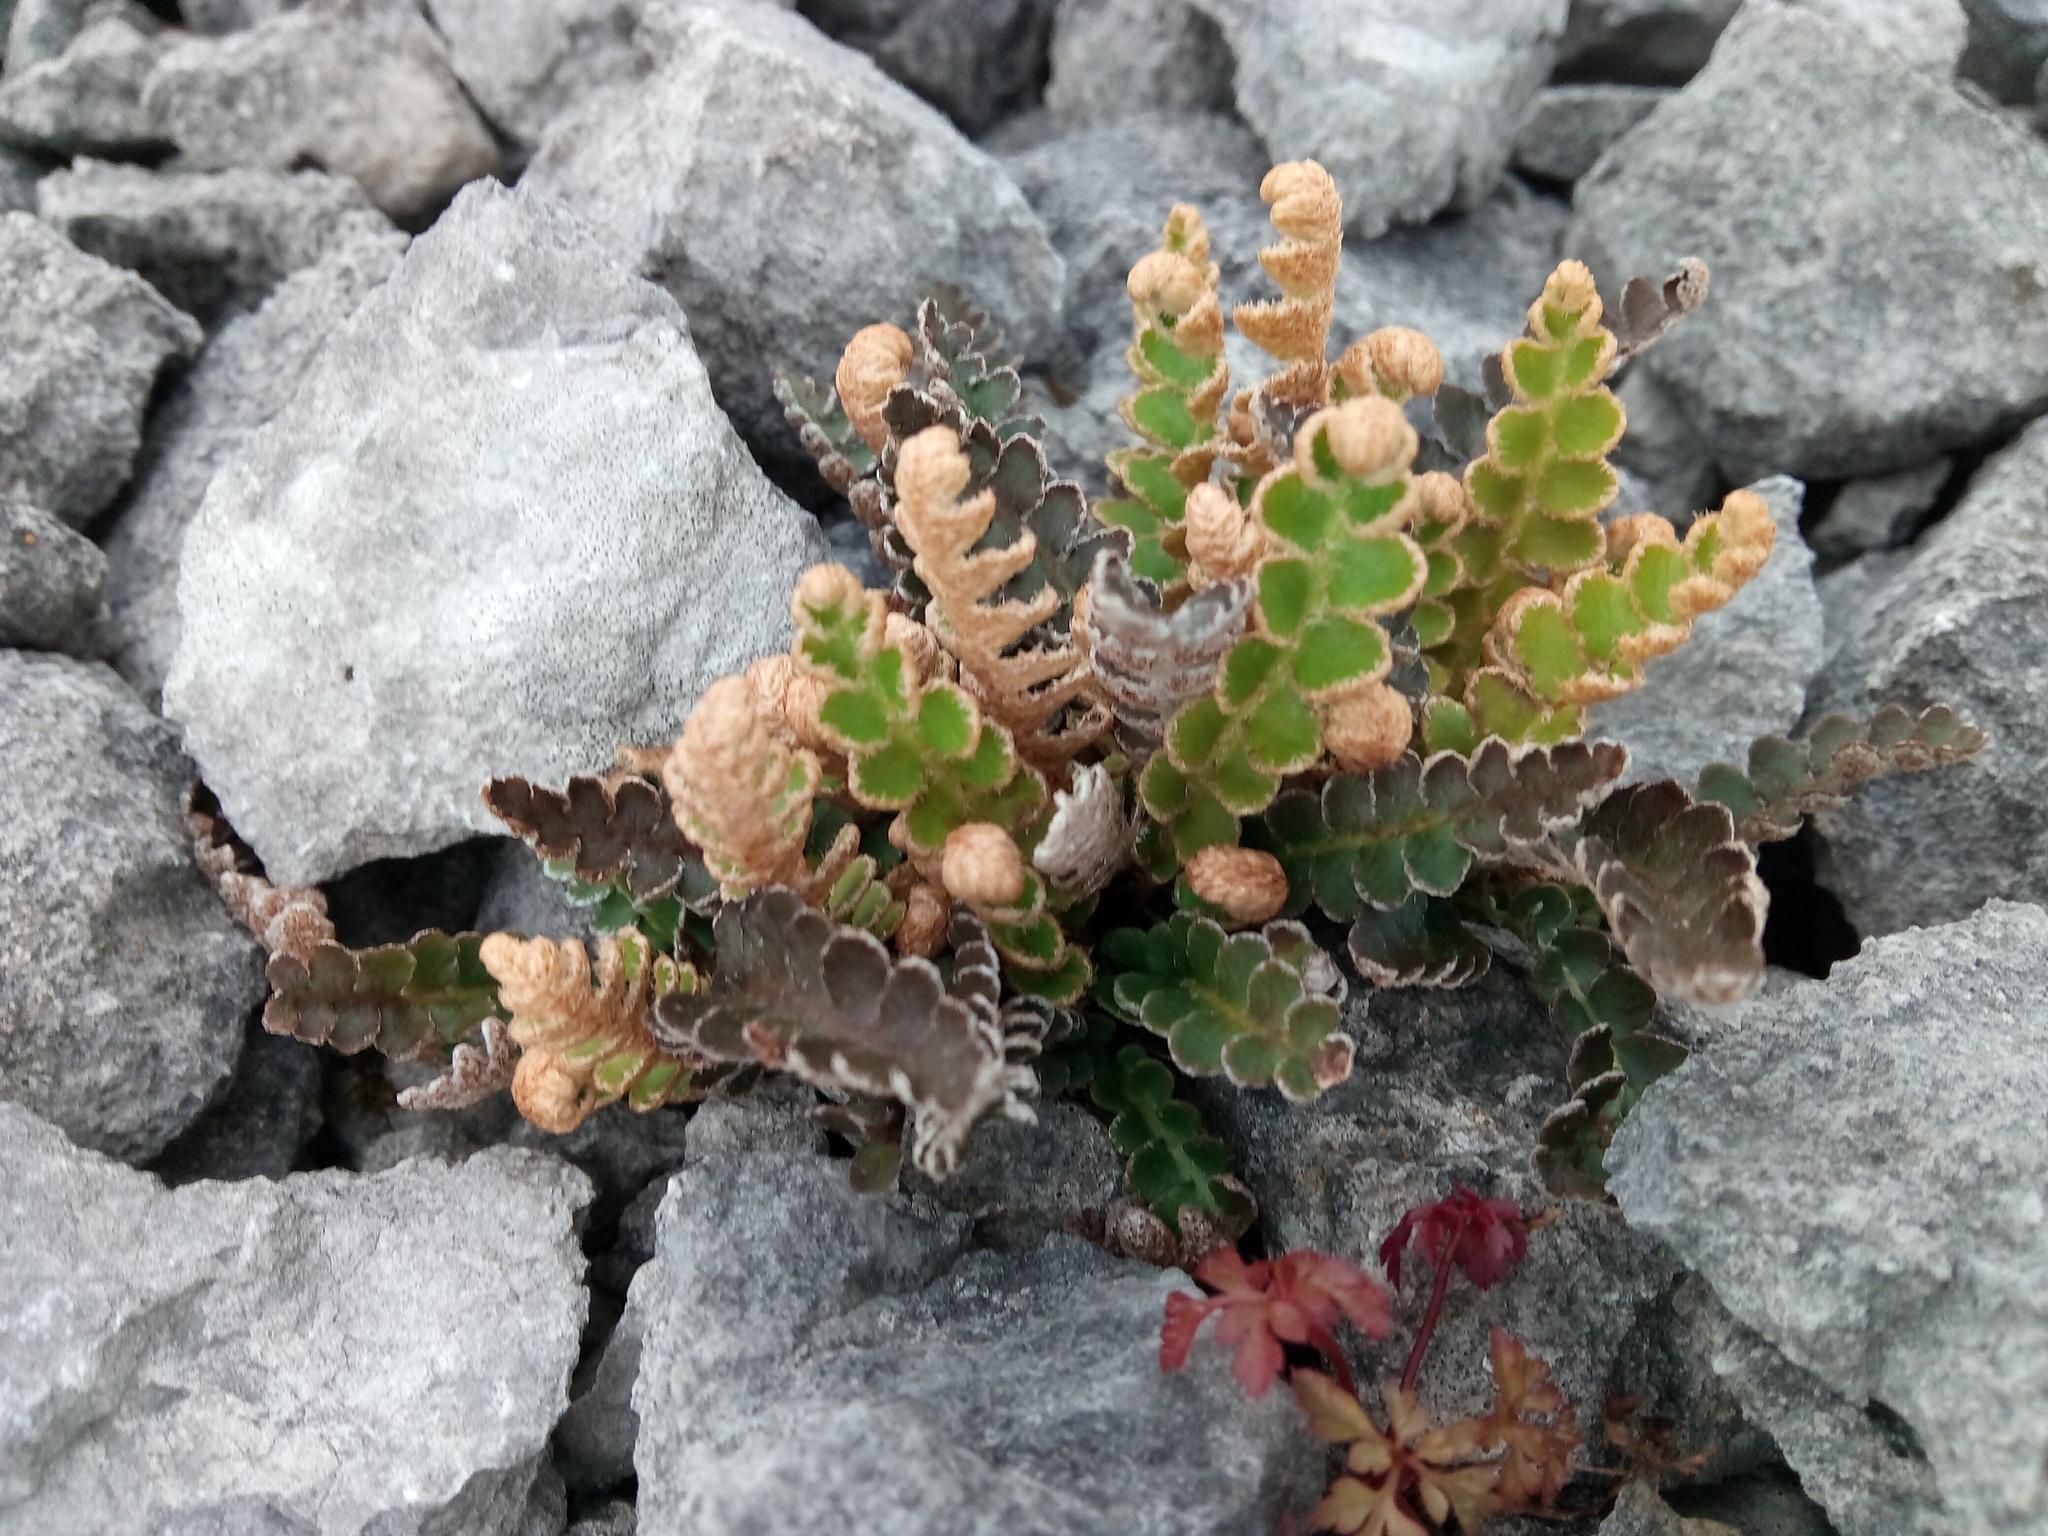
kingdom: Plantae
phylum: Tracheophyta
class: Polypodiopsida
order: Polypodiales
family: Aspleniaceae
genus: Asplenium
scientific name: Asplenium ceterach
